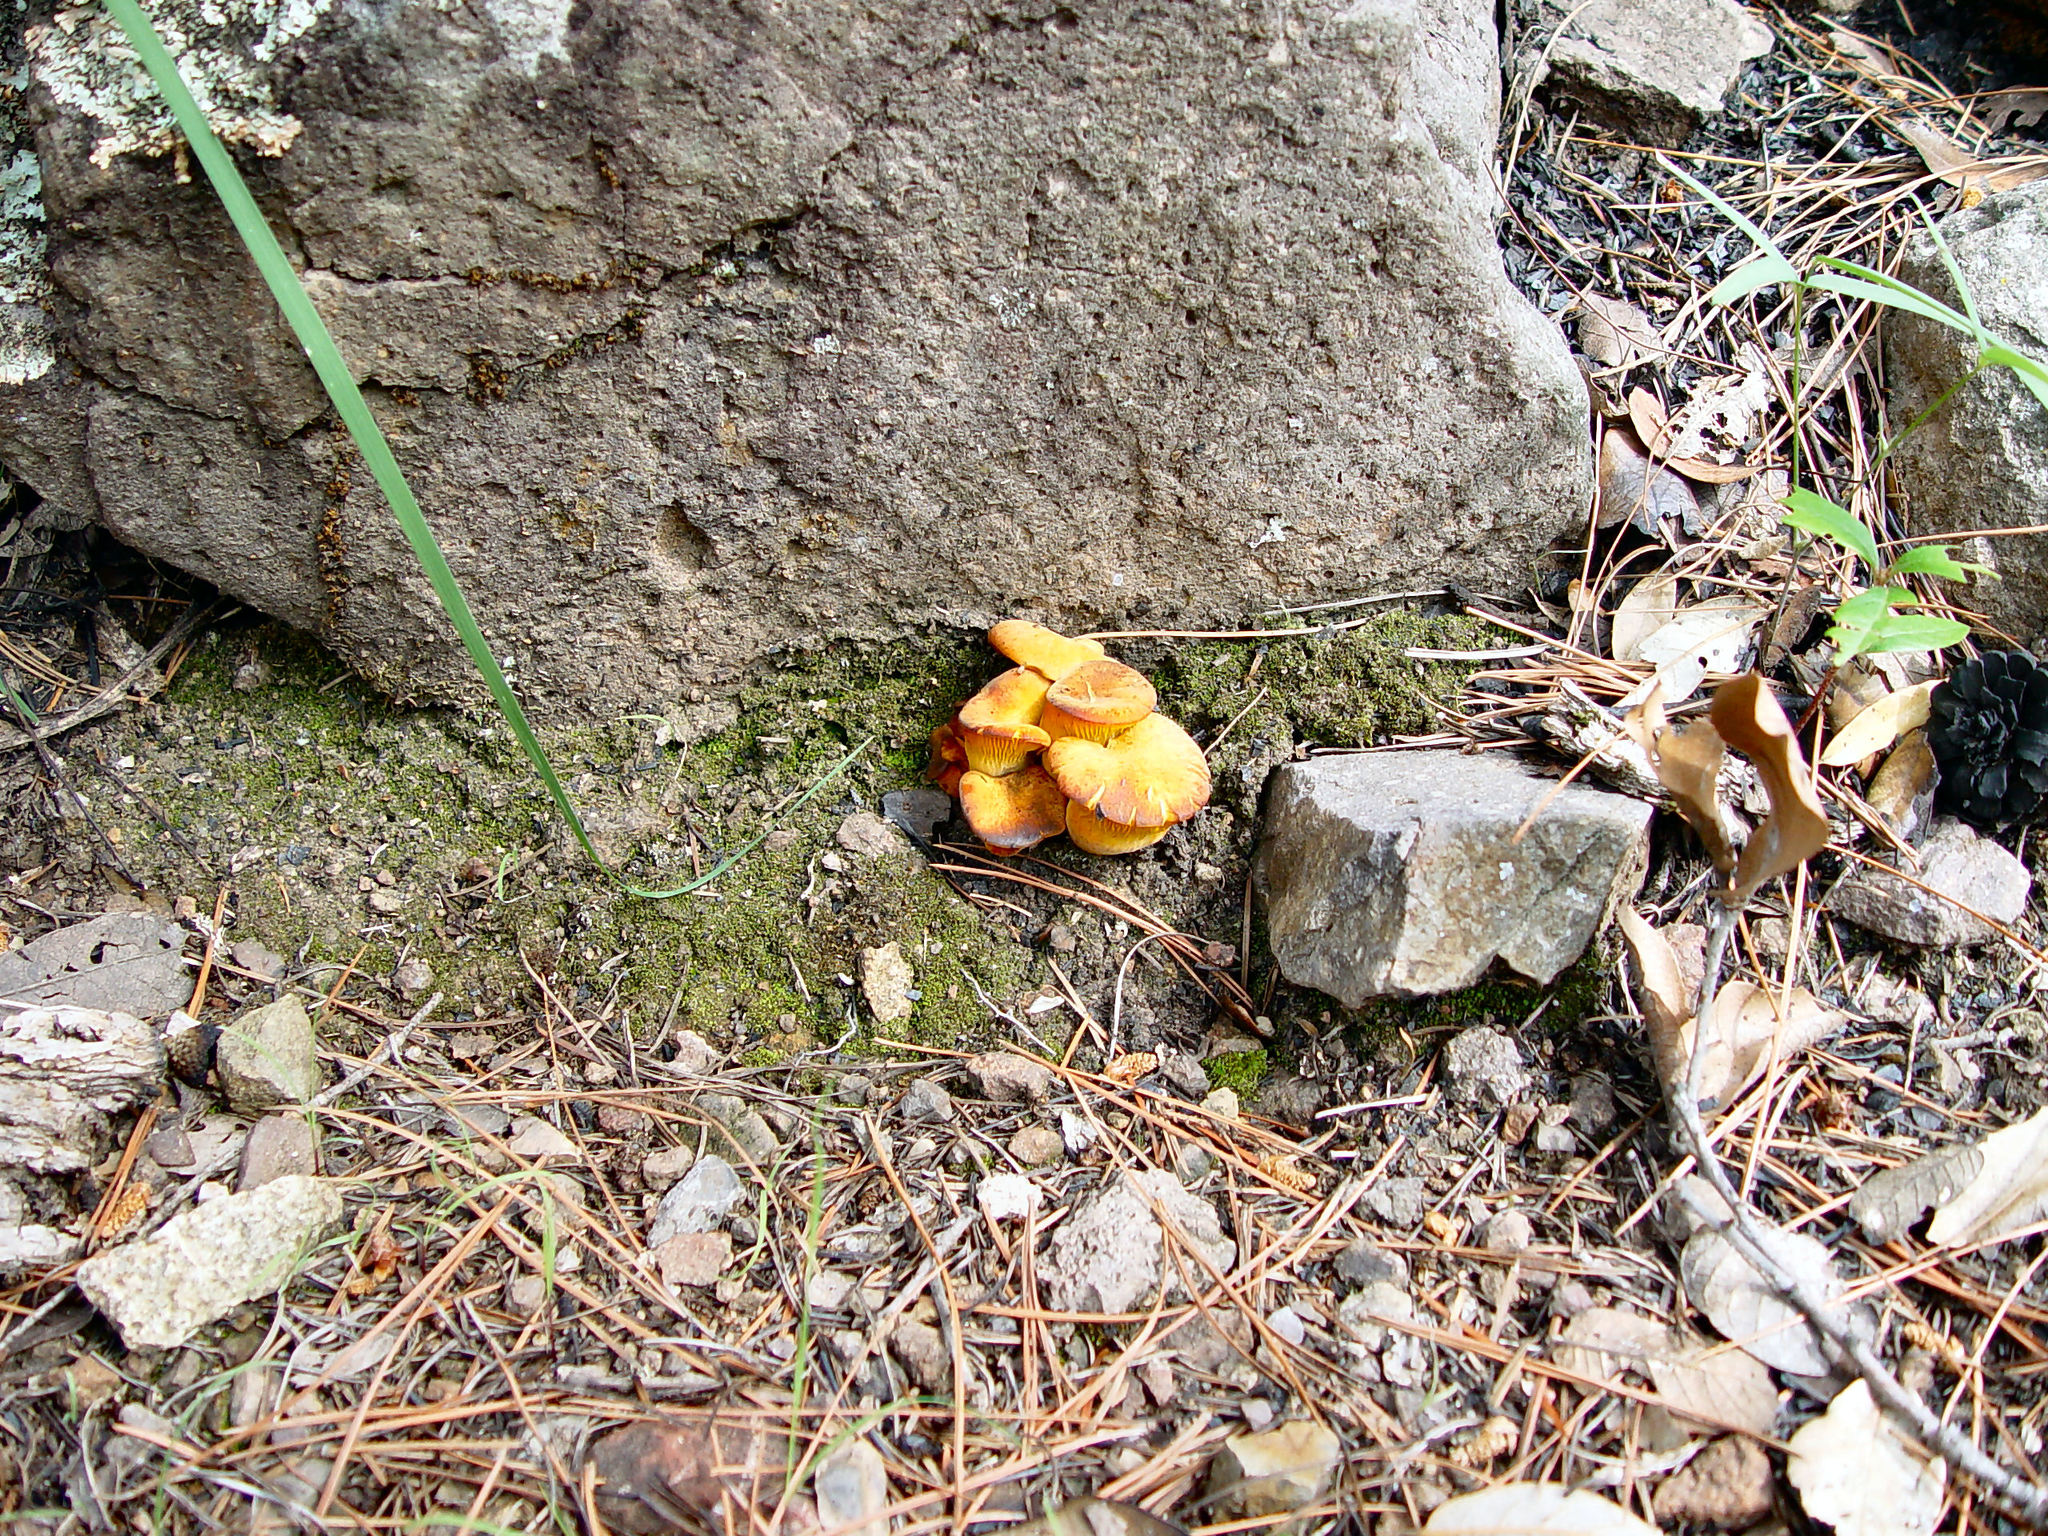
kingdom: Fungi
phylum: Basidiomycota
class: Agaricomycetes
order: Agaricales
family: Omphalotaceae
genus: Omphalotus
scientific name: Omphalotus subilludens
